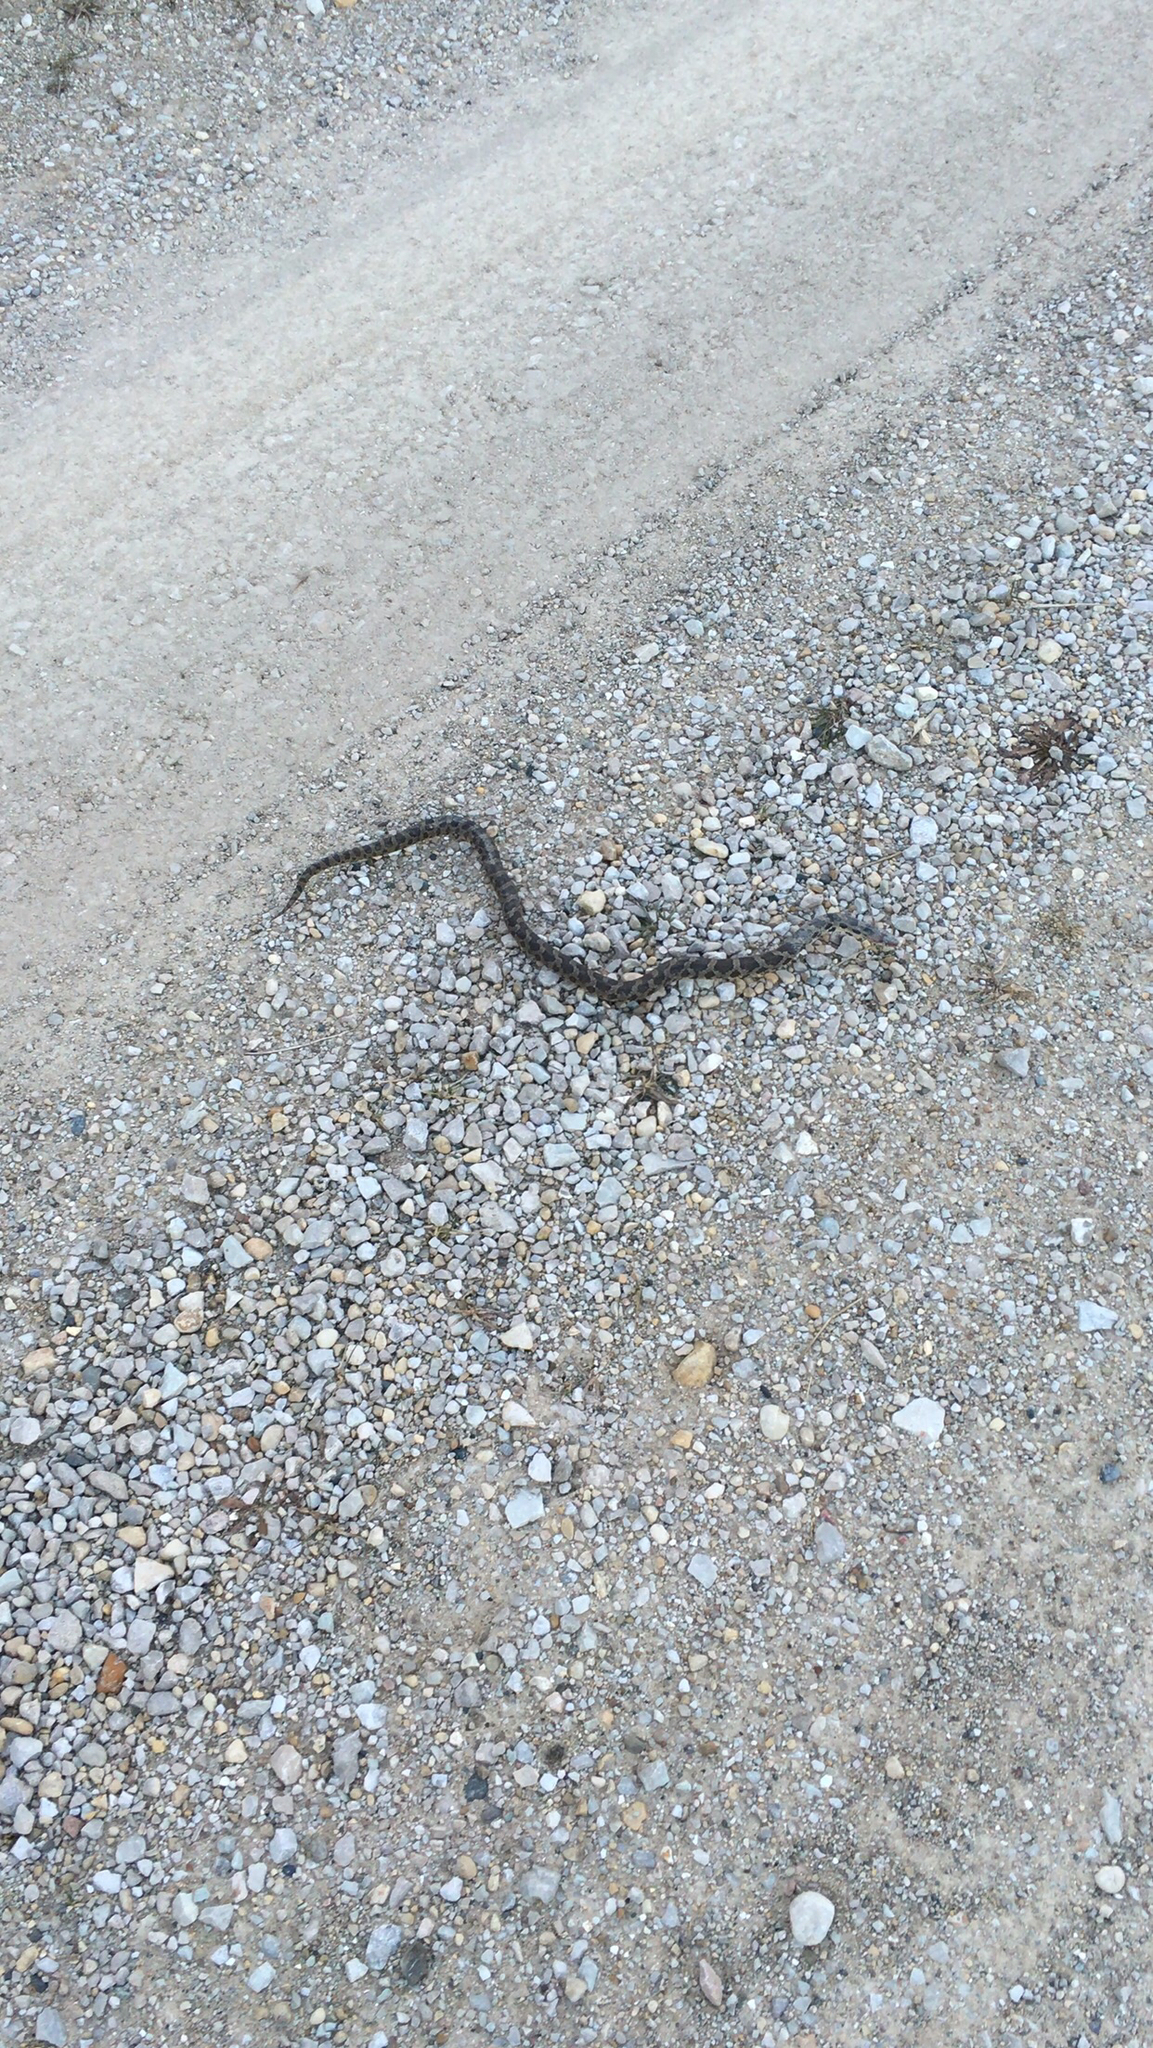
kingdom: Animalia
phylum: Chordata
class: Squamata
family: Colubridae
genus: Pantherophis
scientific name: Pantherophis vulpinus
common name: Eastern fox snake
